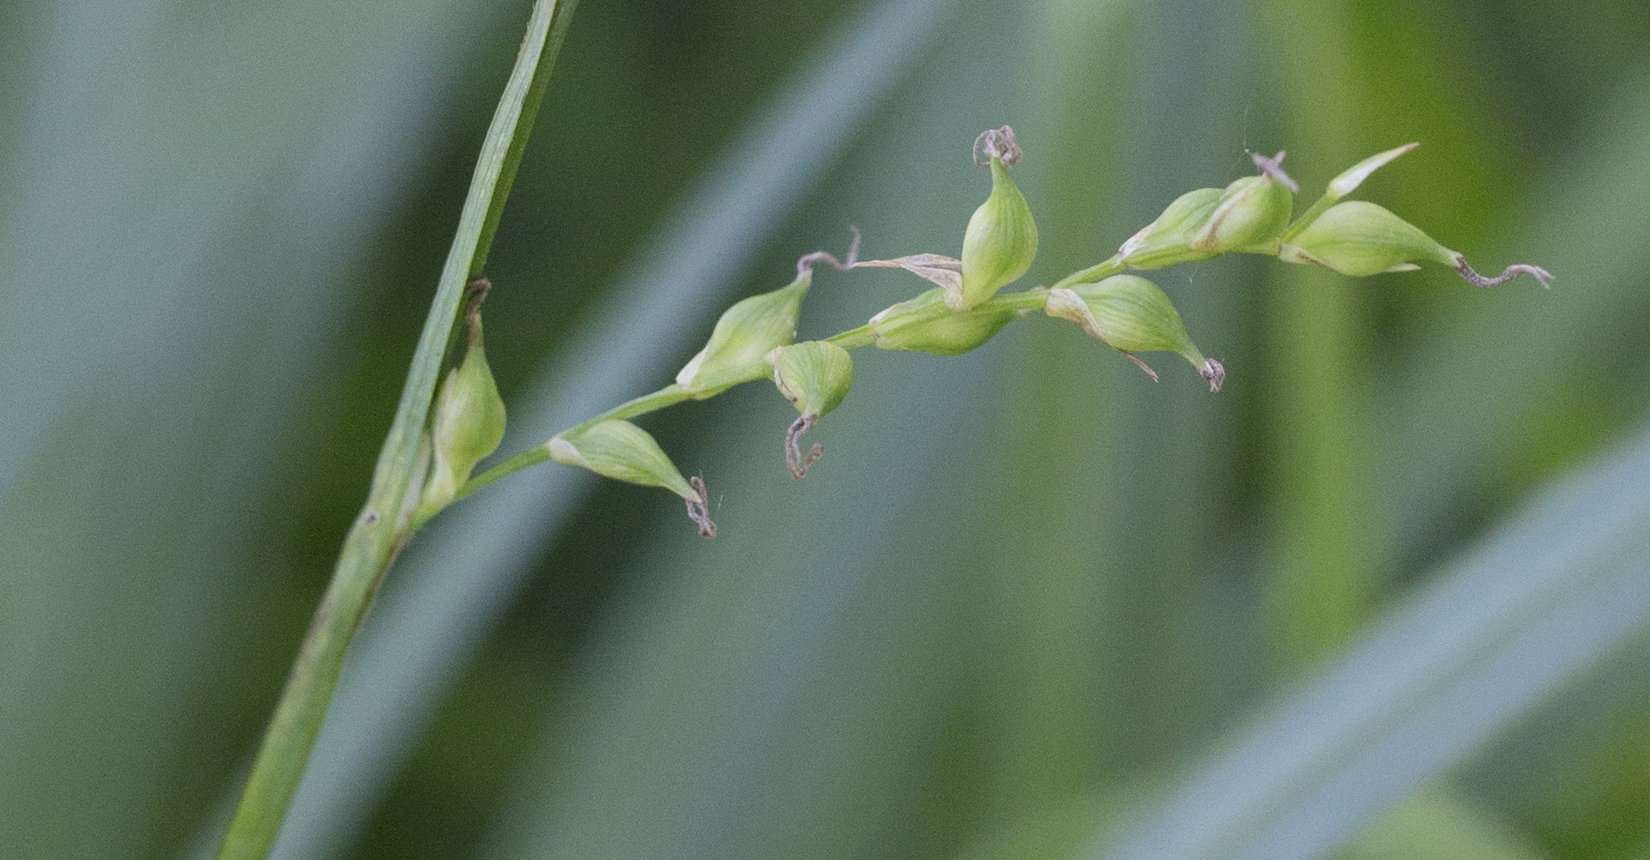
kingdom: Plantae
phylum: Tracheophyta
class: Liliopsida
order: Poales
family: Cyperaceae
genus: Carex
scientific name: Carex pilosa
